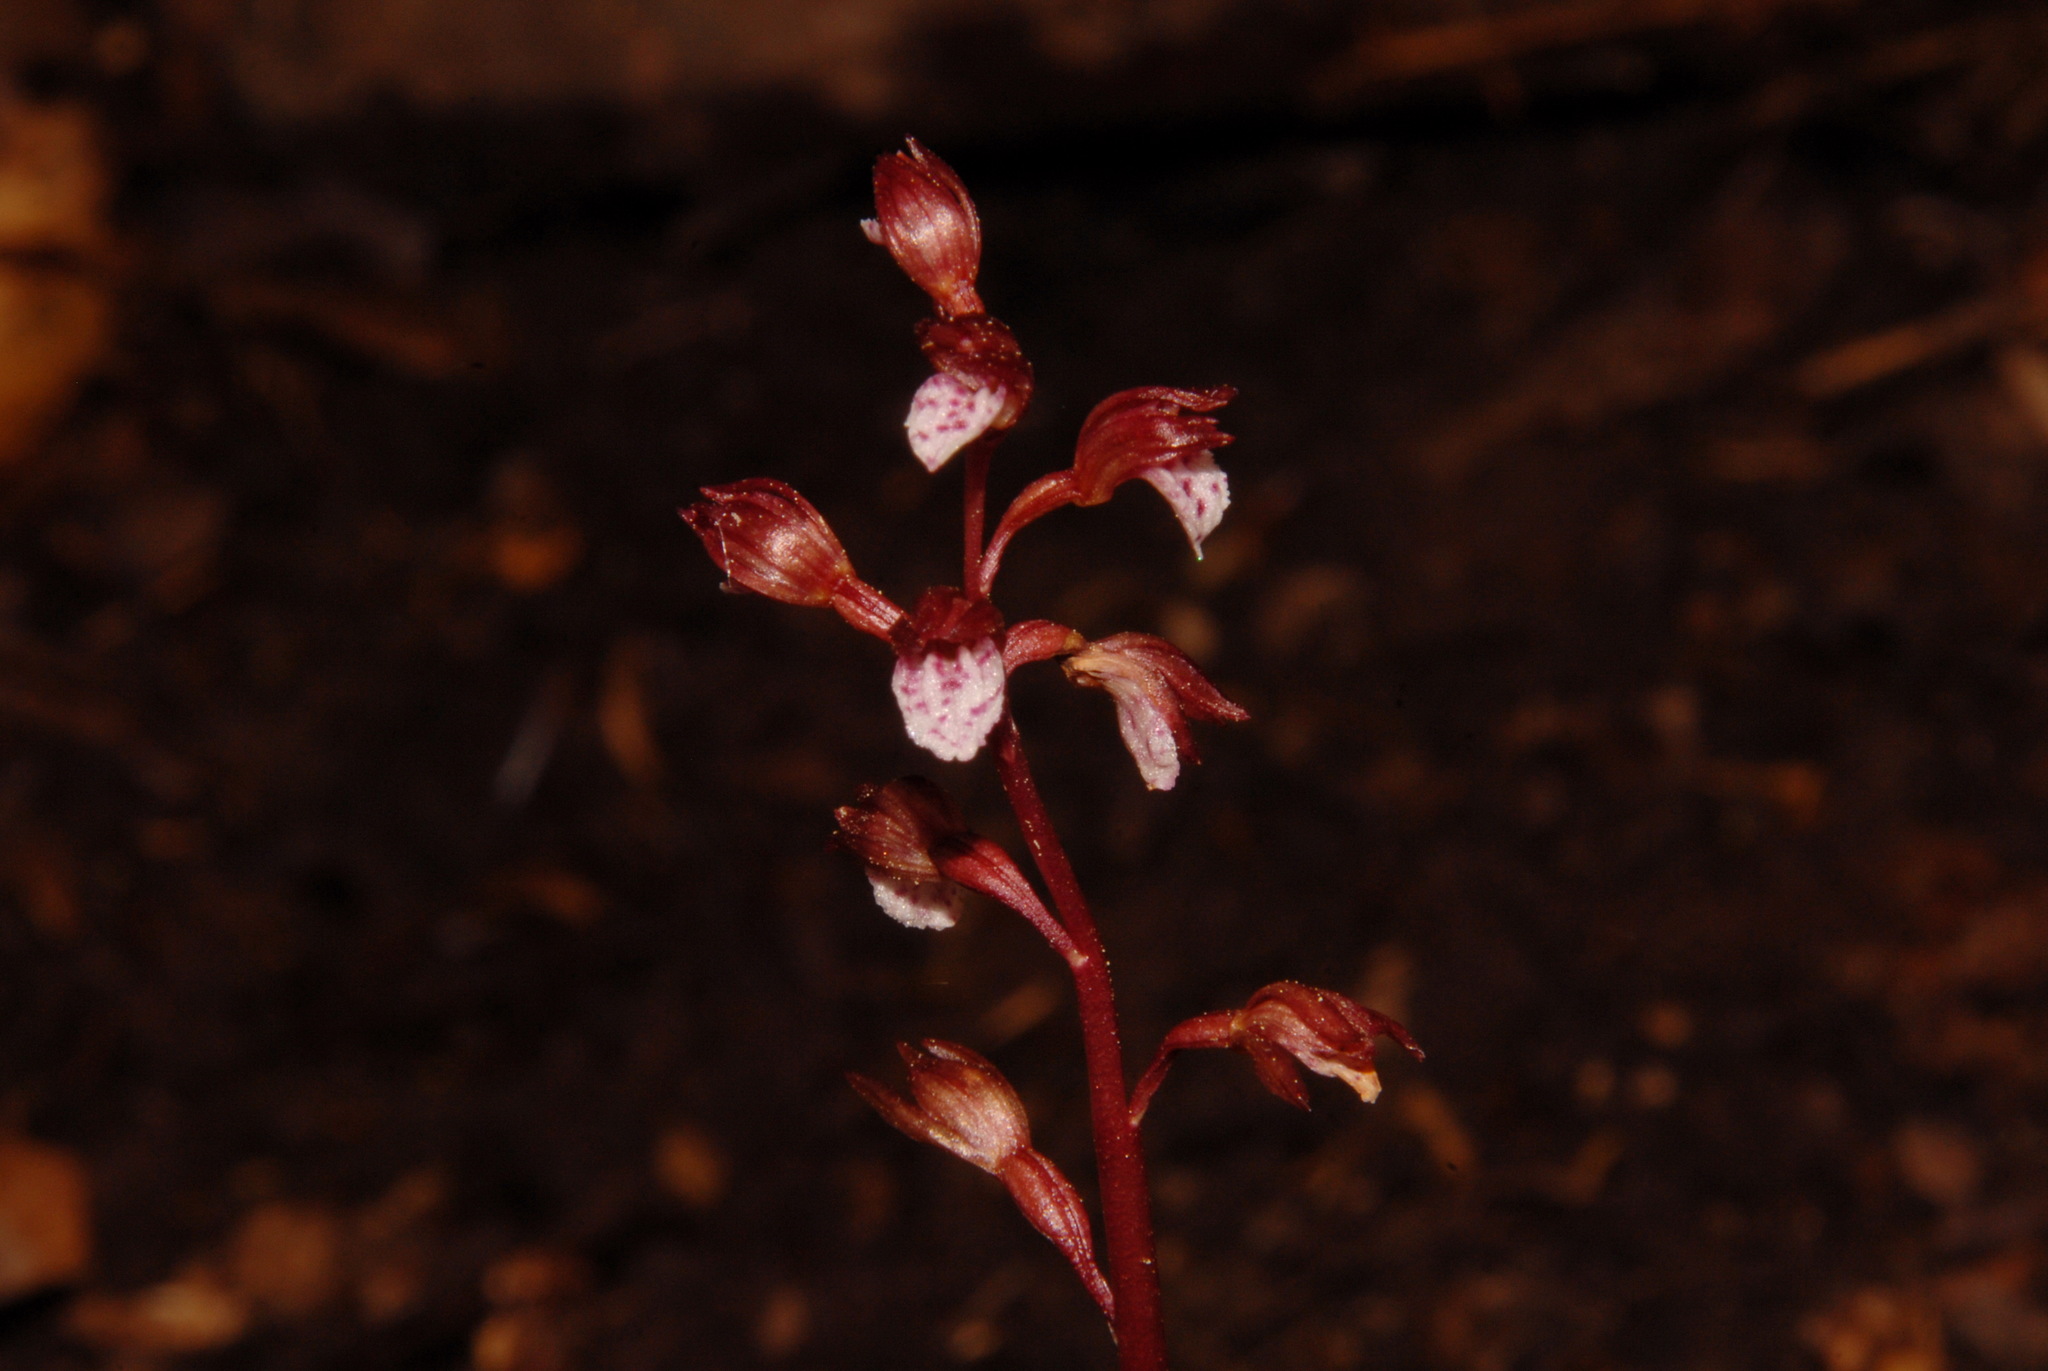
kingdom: Plantae
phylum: Tracheophyta
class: Liliopsida
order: Asparagales
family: Orchidaceae
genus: Corallorhiza
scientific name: Corallorhiza wisteriana
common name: Spring coralroot
